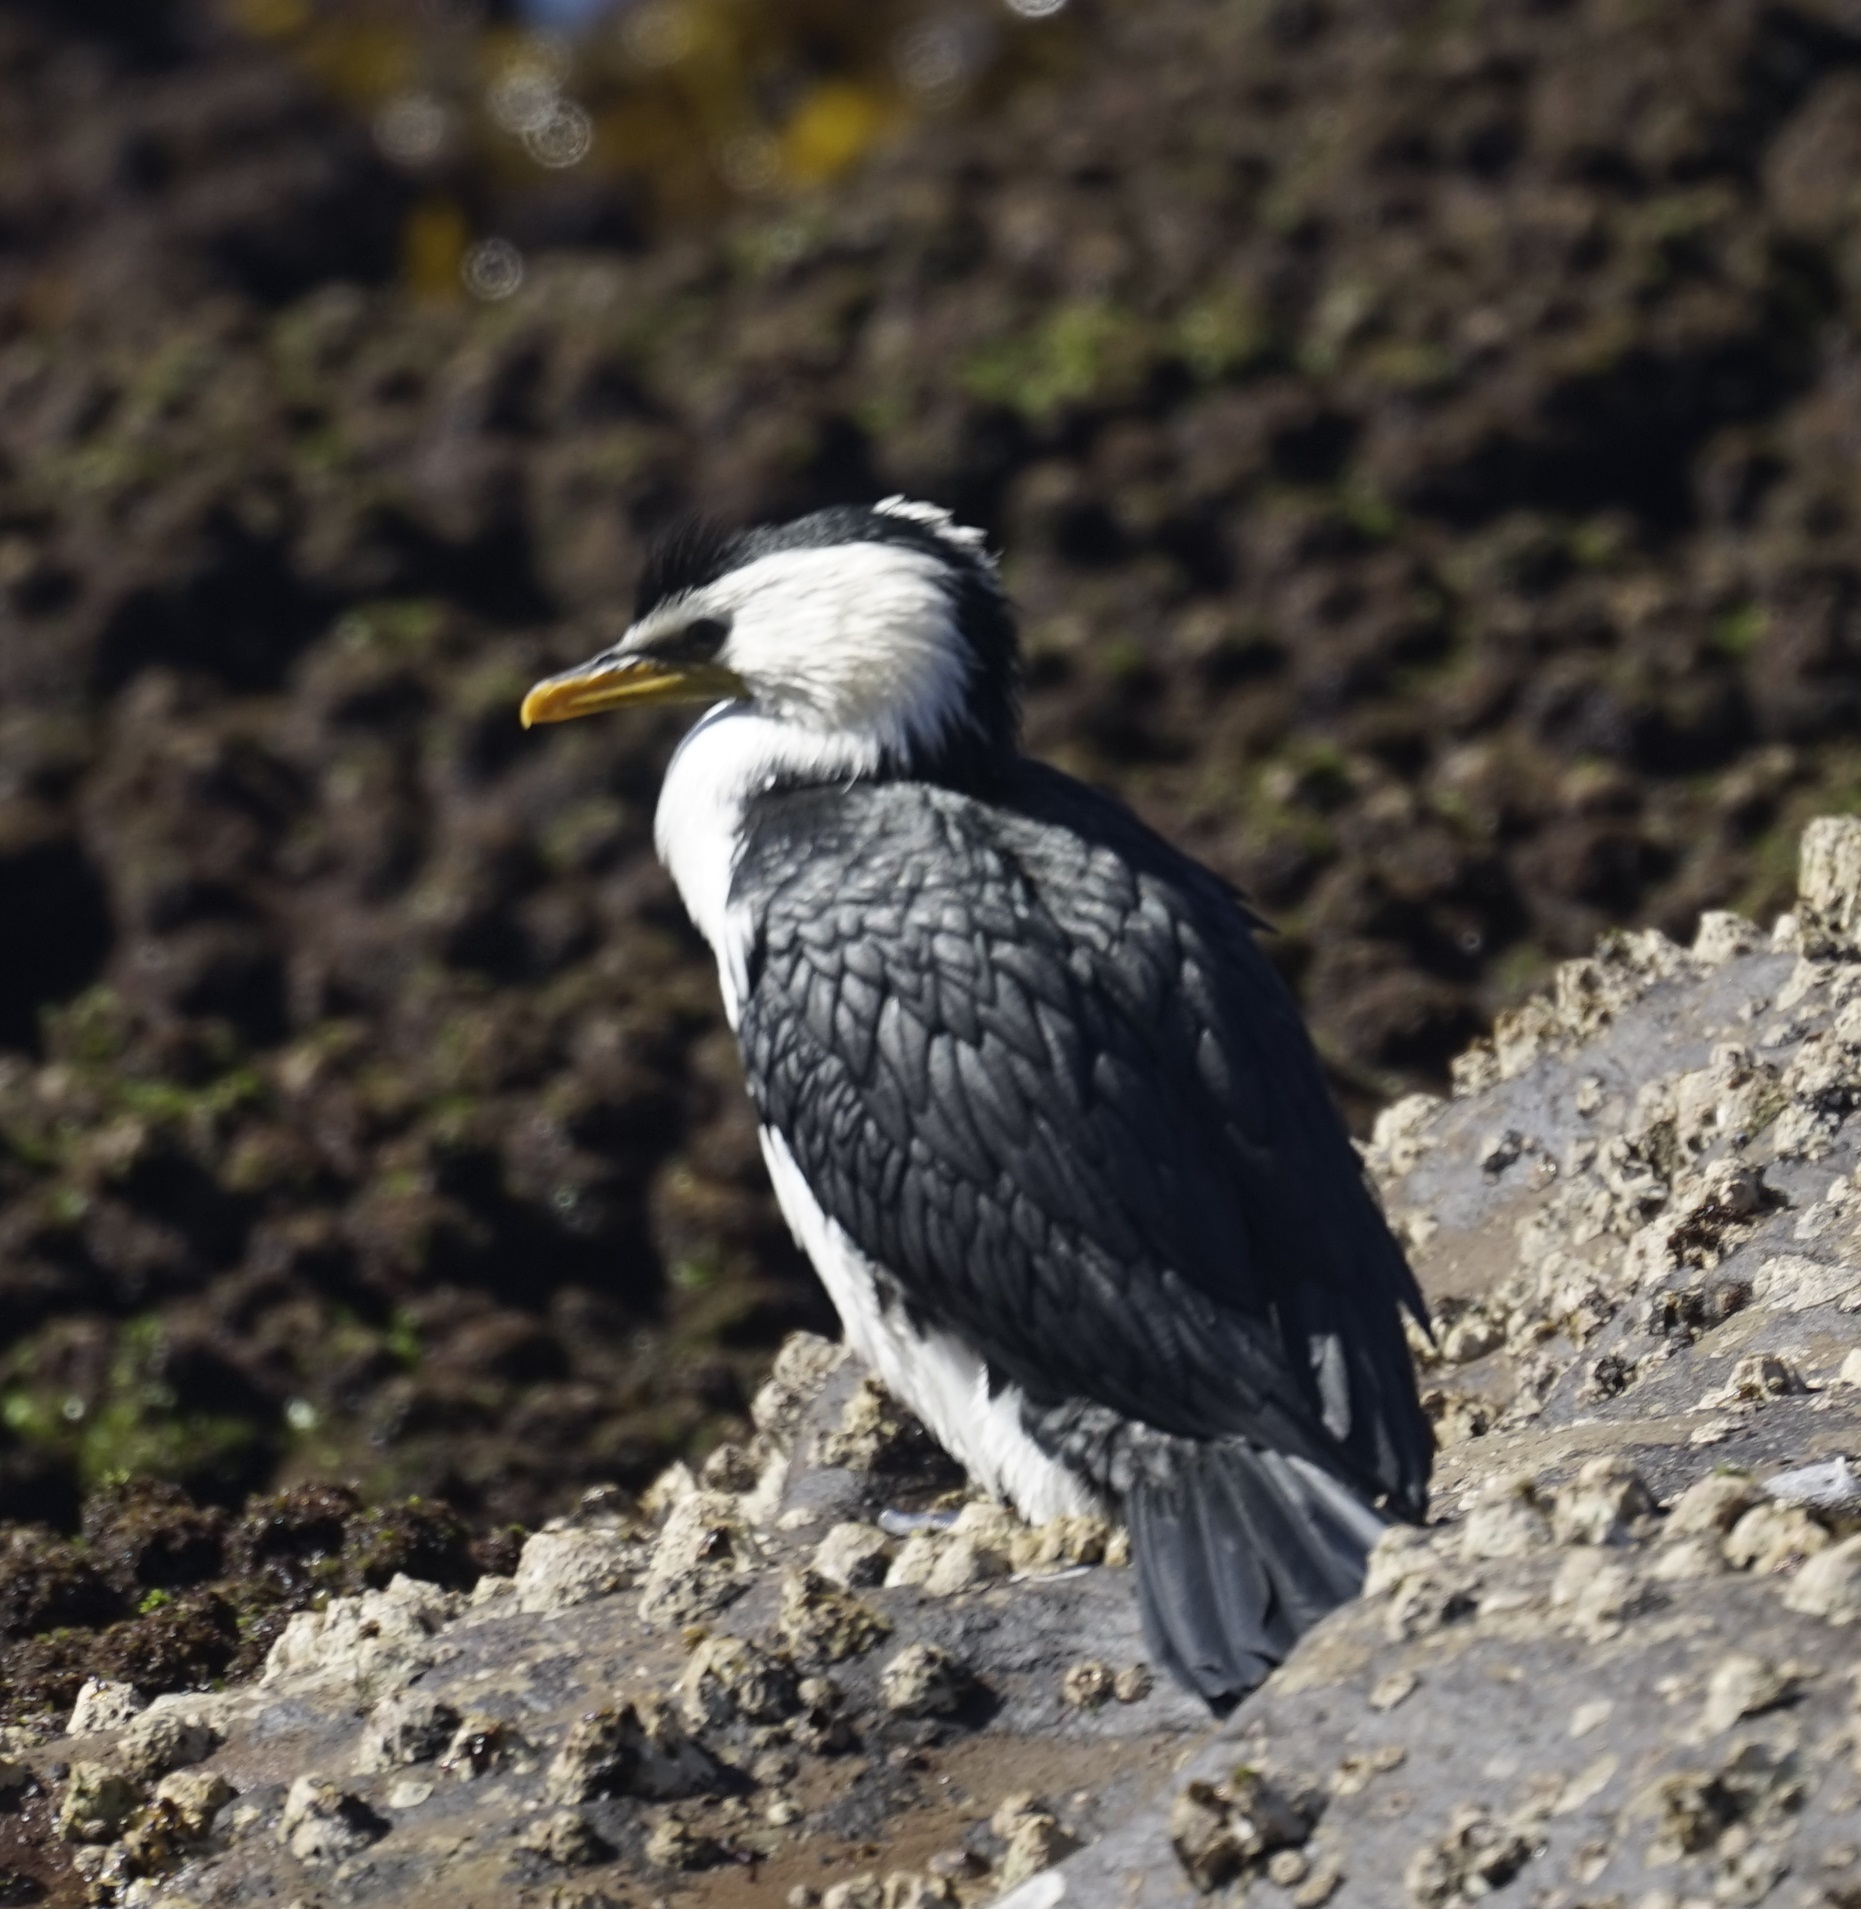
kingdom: Animalia
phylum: Chordata
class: Aves
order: Suliformes
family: Phalacrocoracidae
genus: Microcarbo
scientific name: Microcarbo melanoleucos
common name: Little pied cormorant
